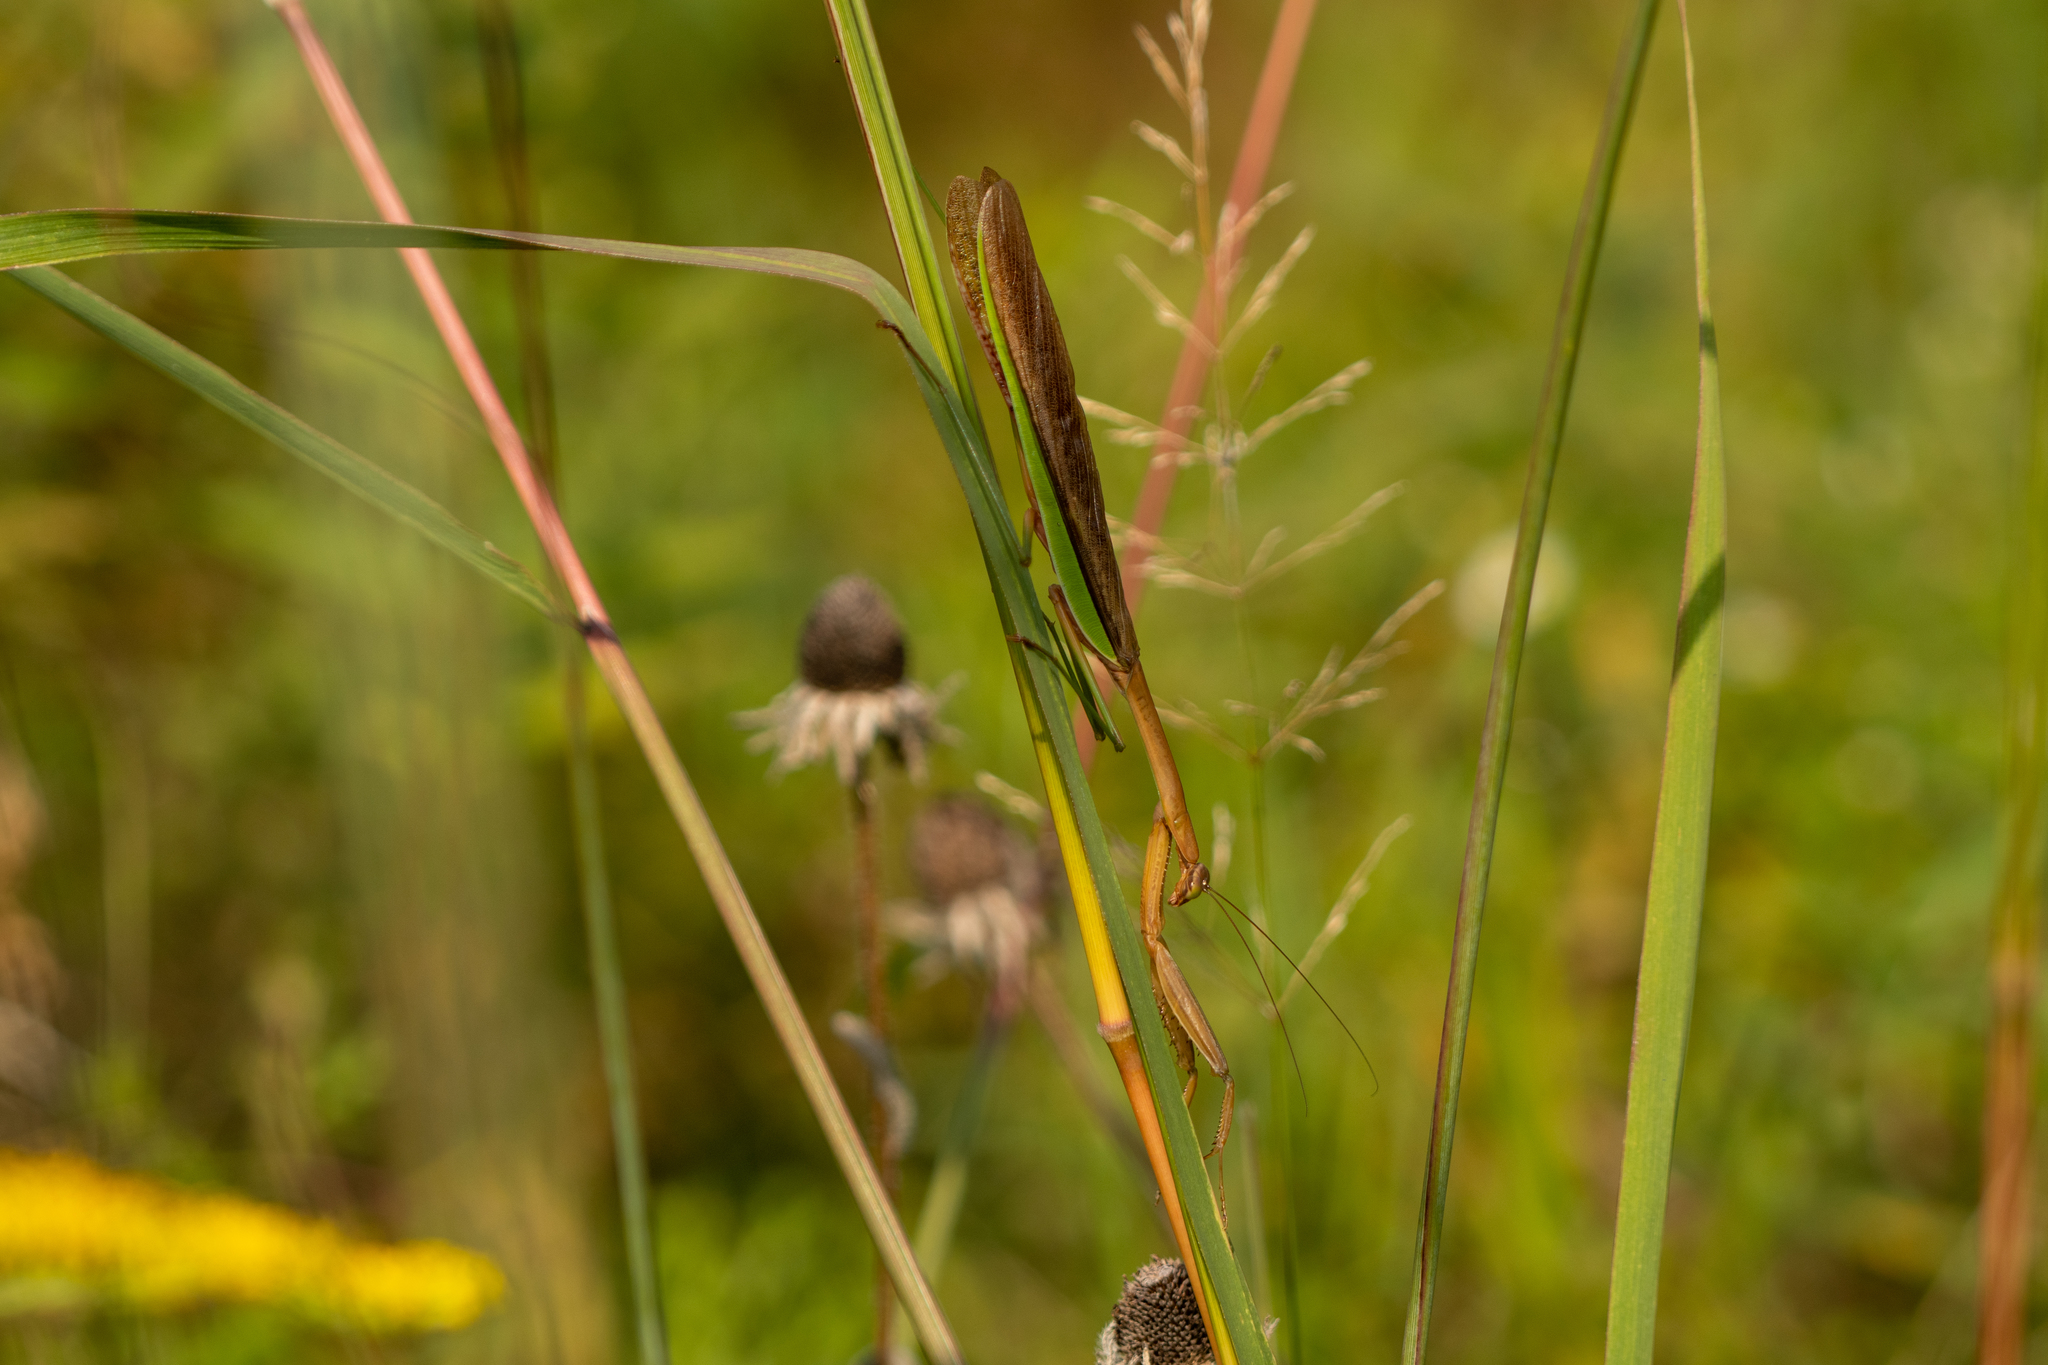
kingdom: Animalia
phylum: Arthropoda
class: Insecta
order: Mantodea
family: Mantidae
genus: Tenodera
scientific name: Tenodera sinensis
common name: Chinese mantis
